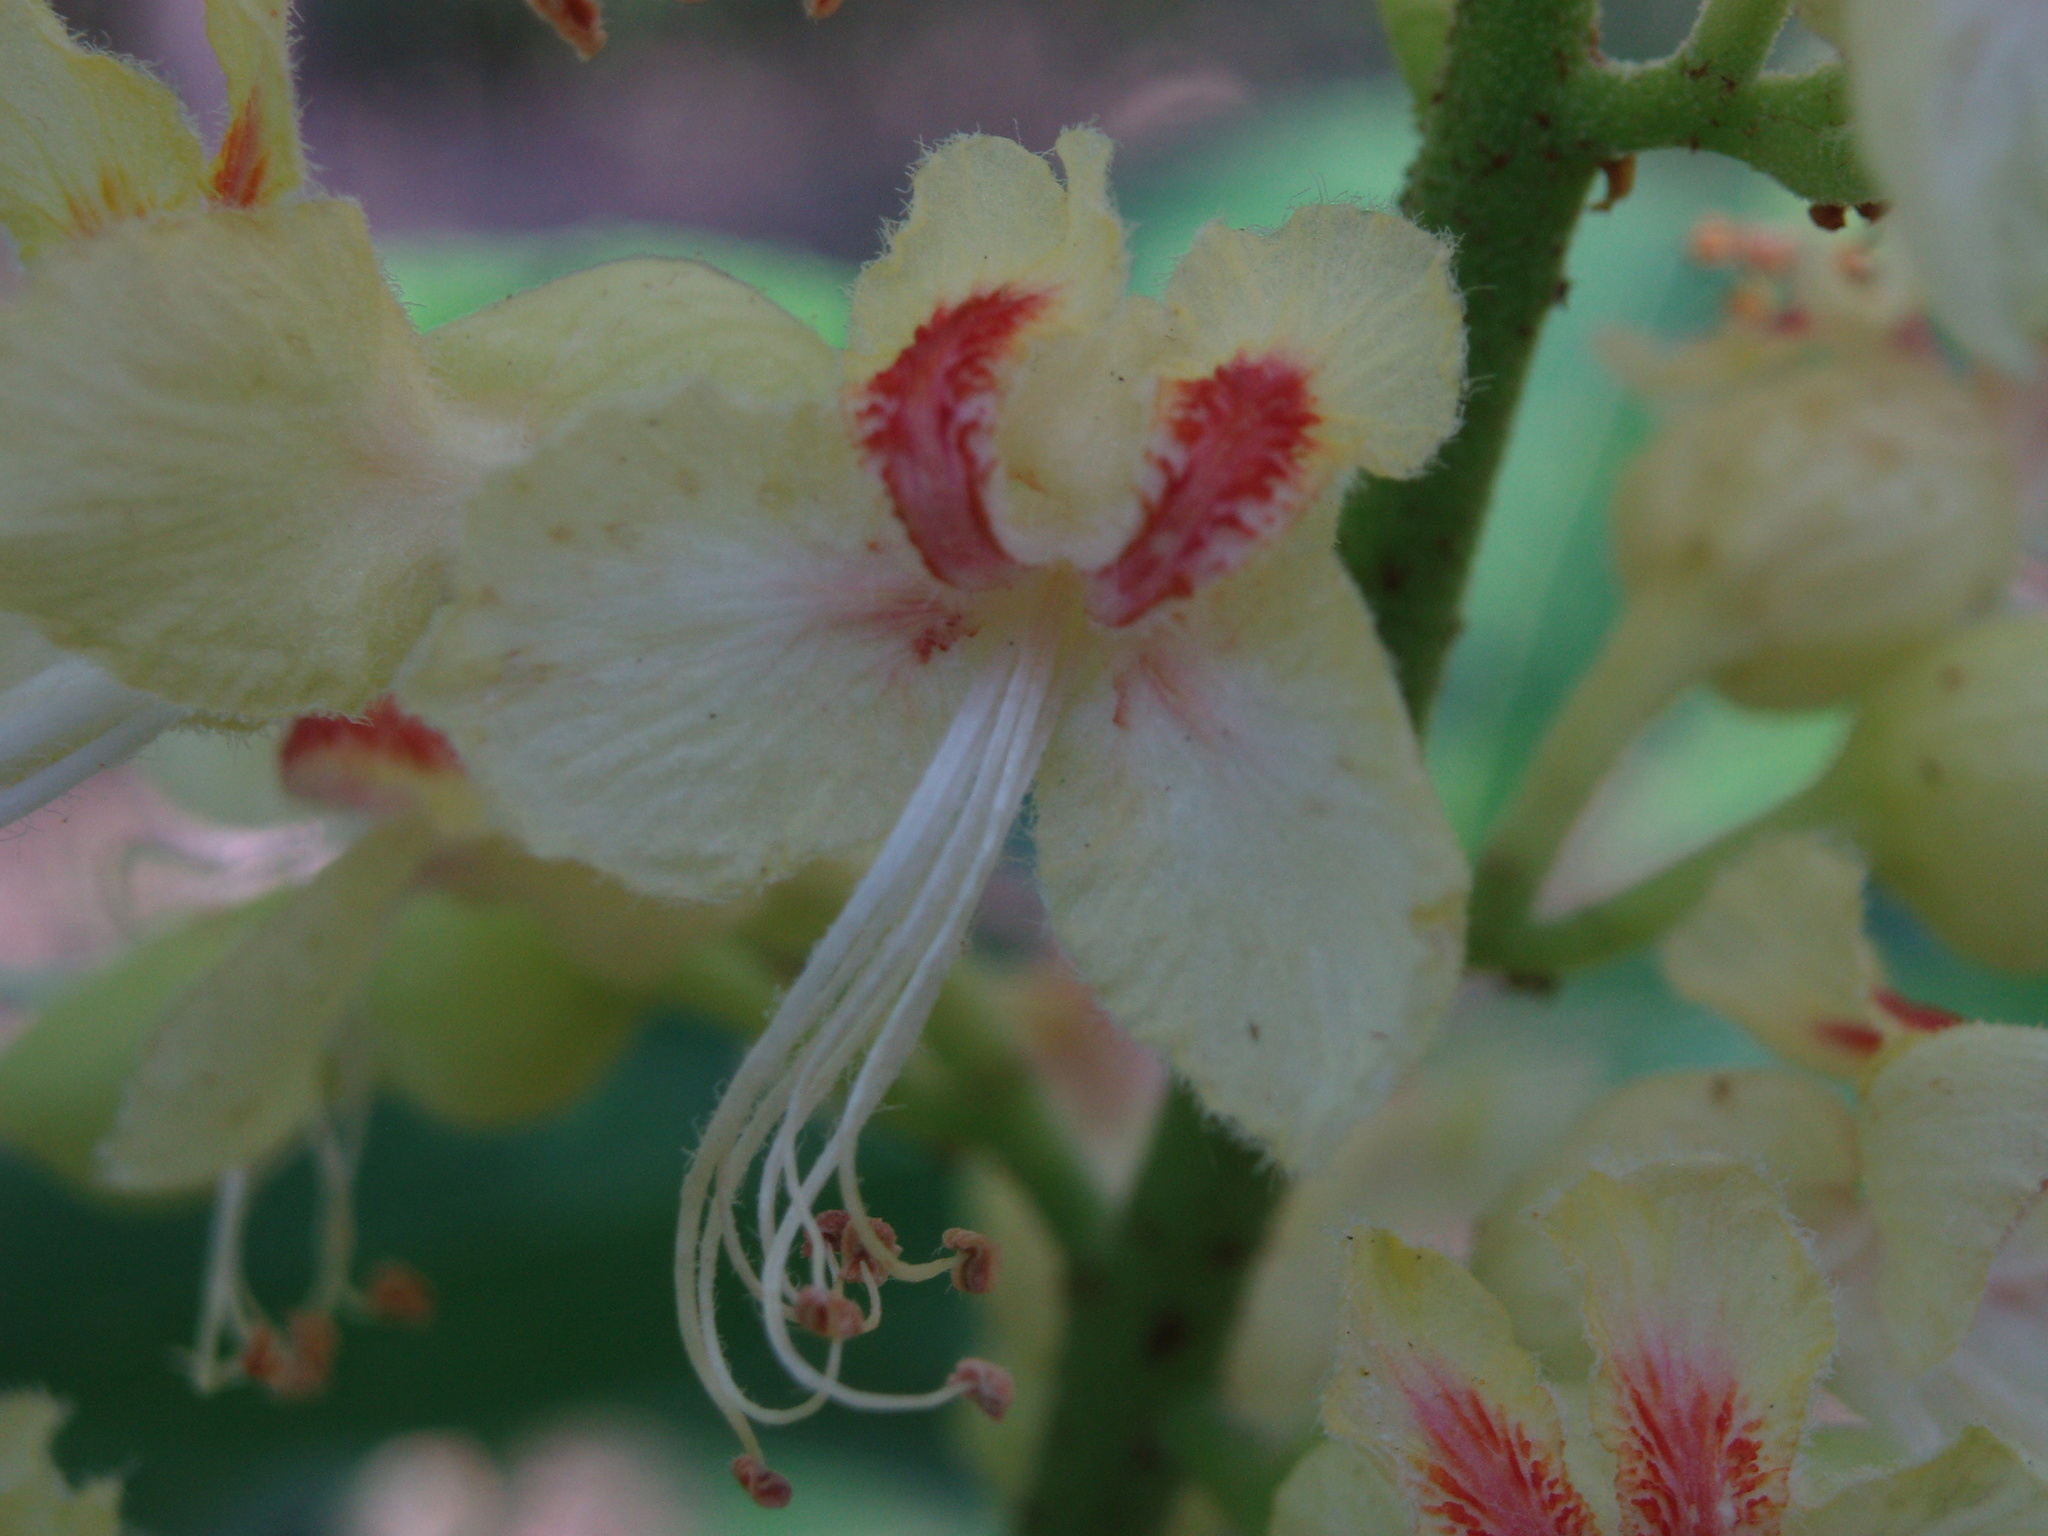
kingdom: Plantae
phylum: Tracheophyta
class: Magnoliopsida
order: Sapindales
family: Sapindaceae
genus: Aesculus
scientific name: Aesculus glabra
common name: Ohio buckeye
